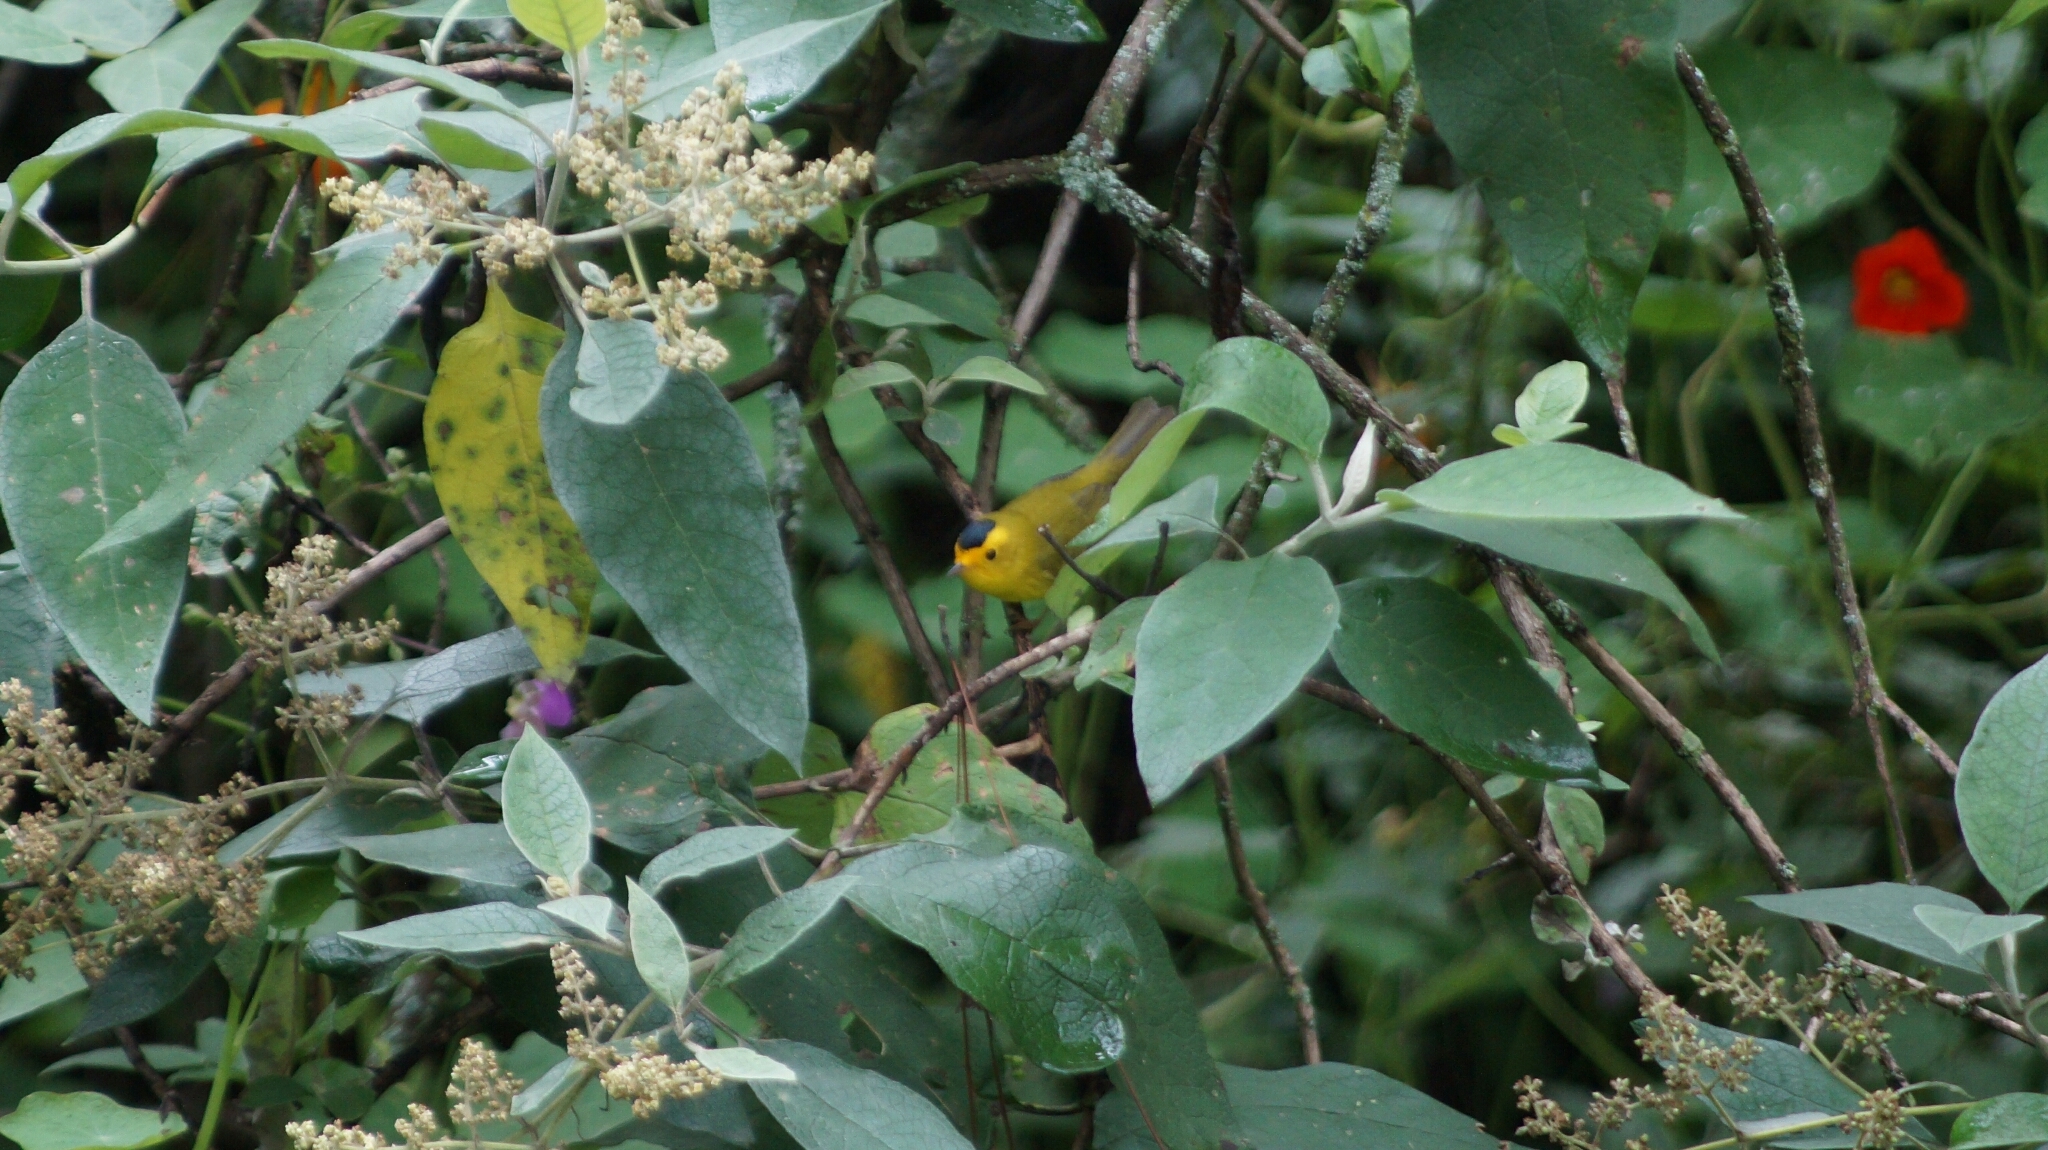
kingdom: Animalia
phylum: Chordata
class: Aves
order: Passeriformes
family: Parulidae
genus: Cardellina
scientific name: Cardellina pusilla
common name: Wilson's warbler
